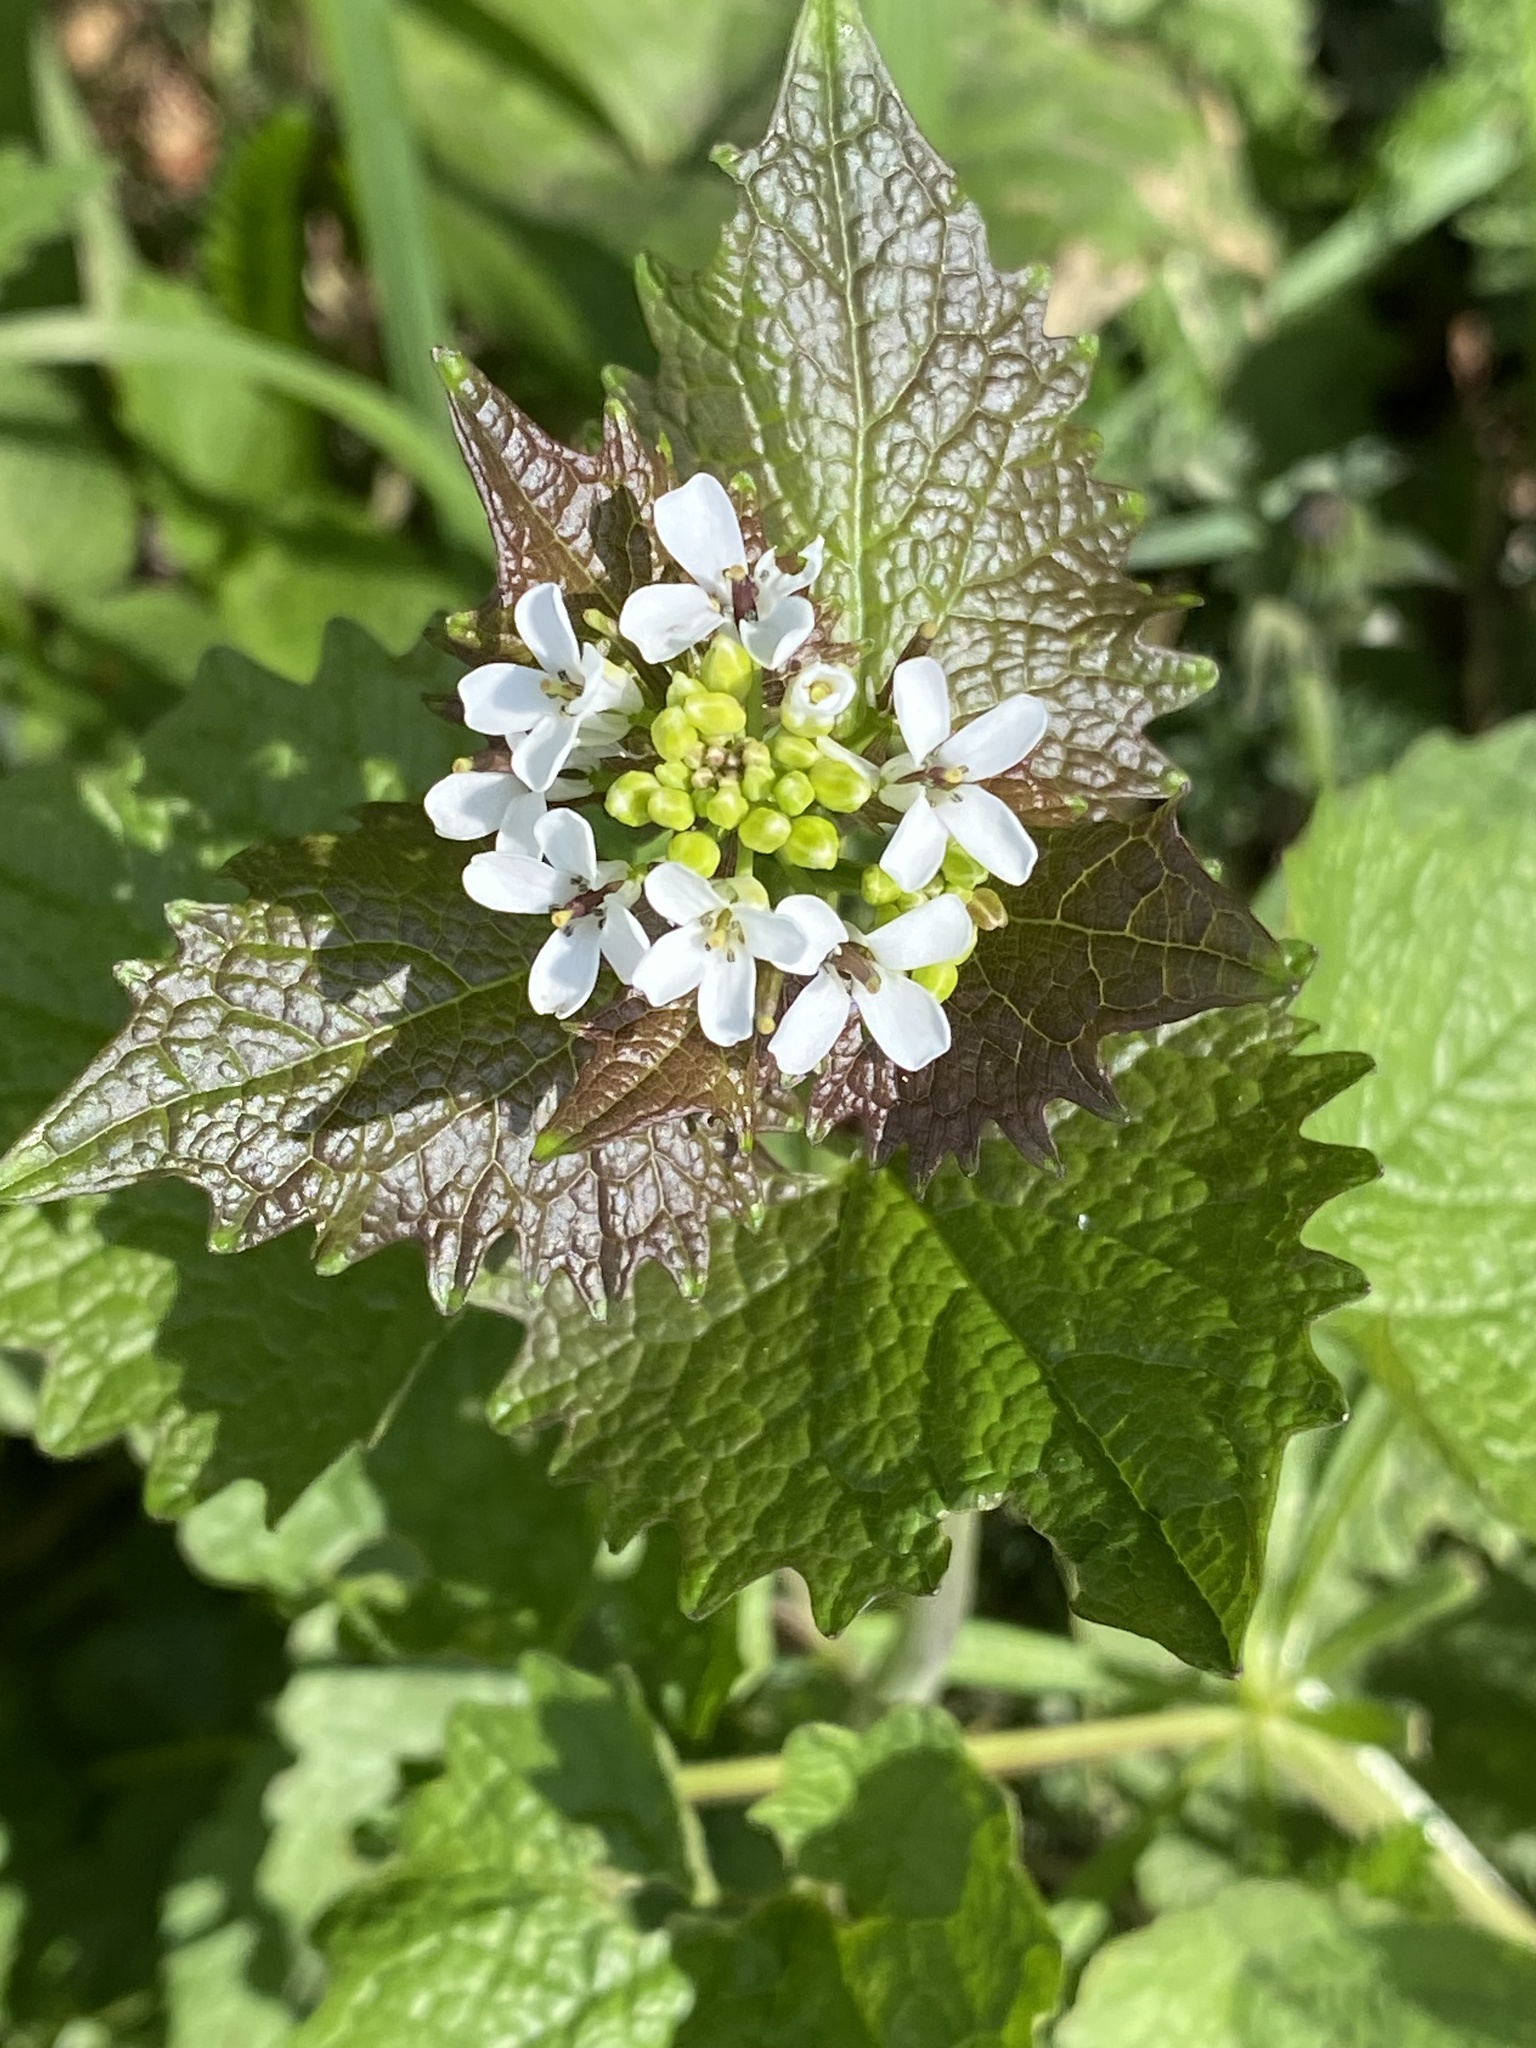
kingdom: Plantae
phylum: Tracheophyta
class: Magnoliopsida
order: Brassicales
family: Brassicaceae
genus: Alliaria
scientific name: Alliaria petiolata
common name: Garlic mustard
